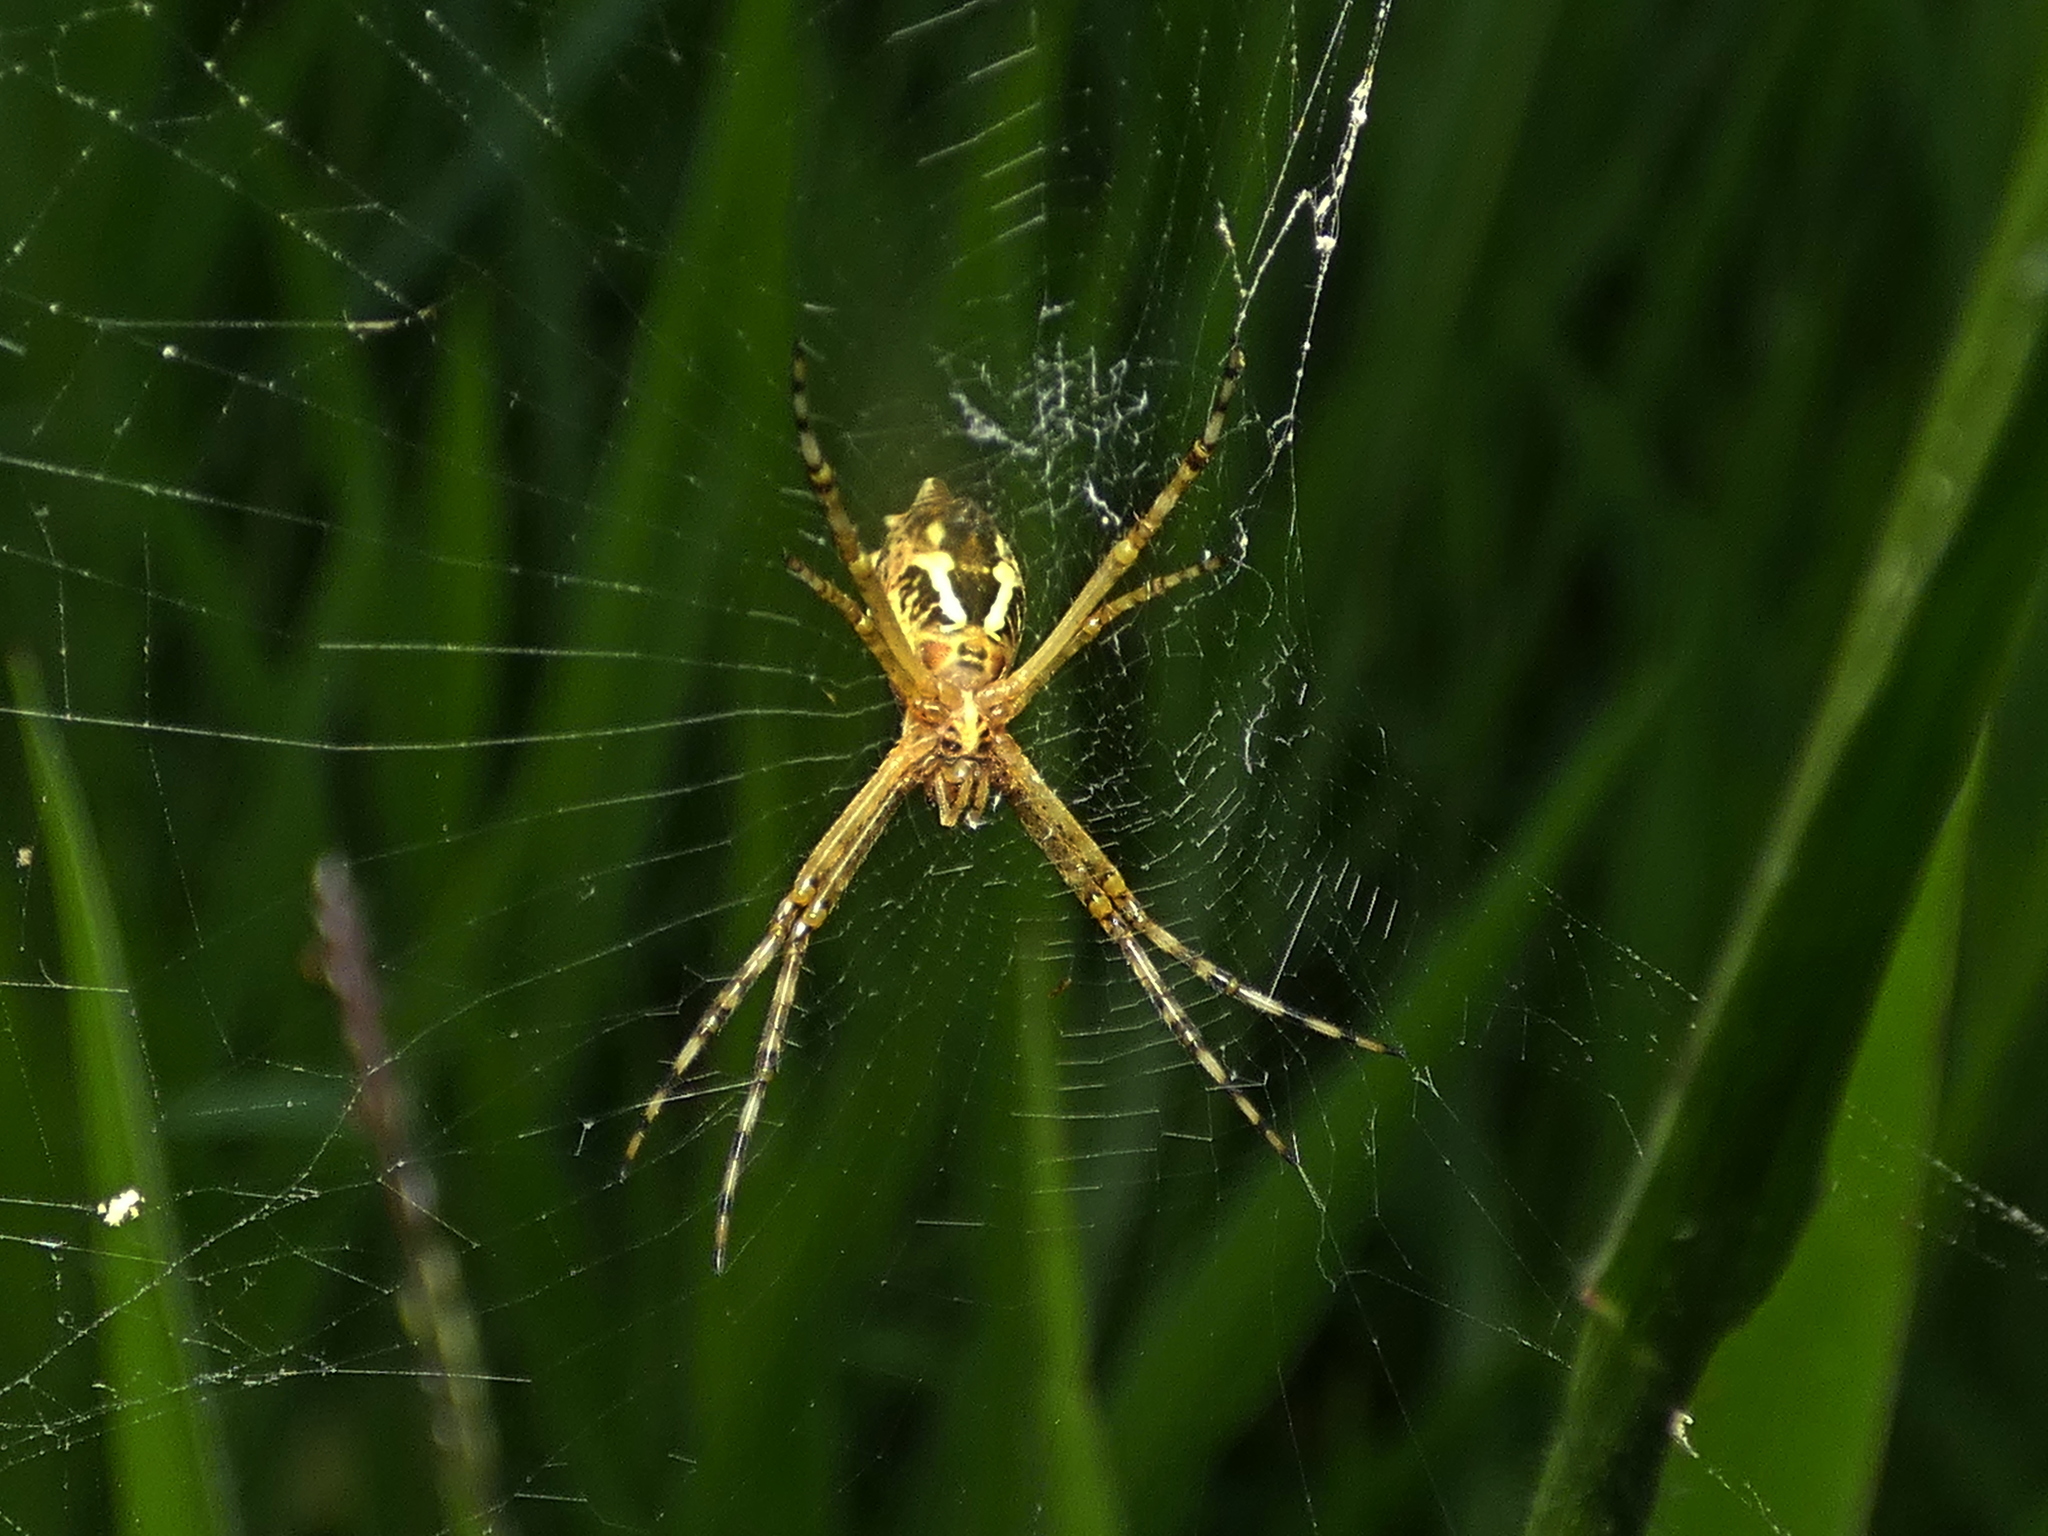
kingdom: Animalia
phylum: Arthropoda
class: Arachnida
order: Araneae
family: Araneidae
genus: Argiope
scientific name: Argiope argentata
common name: Orb weavers
